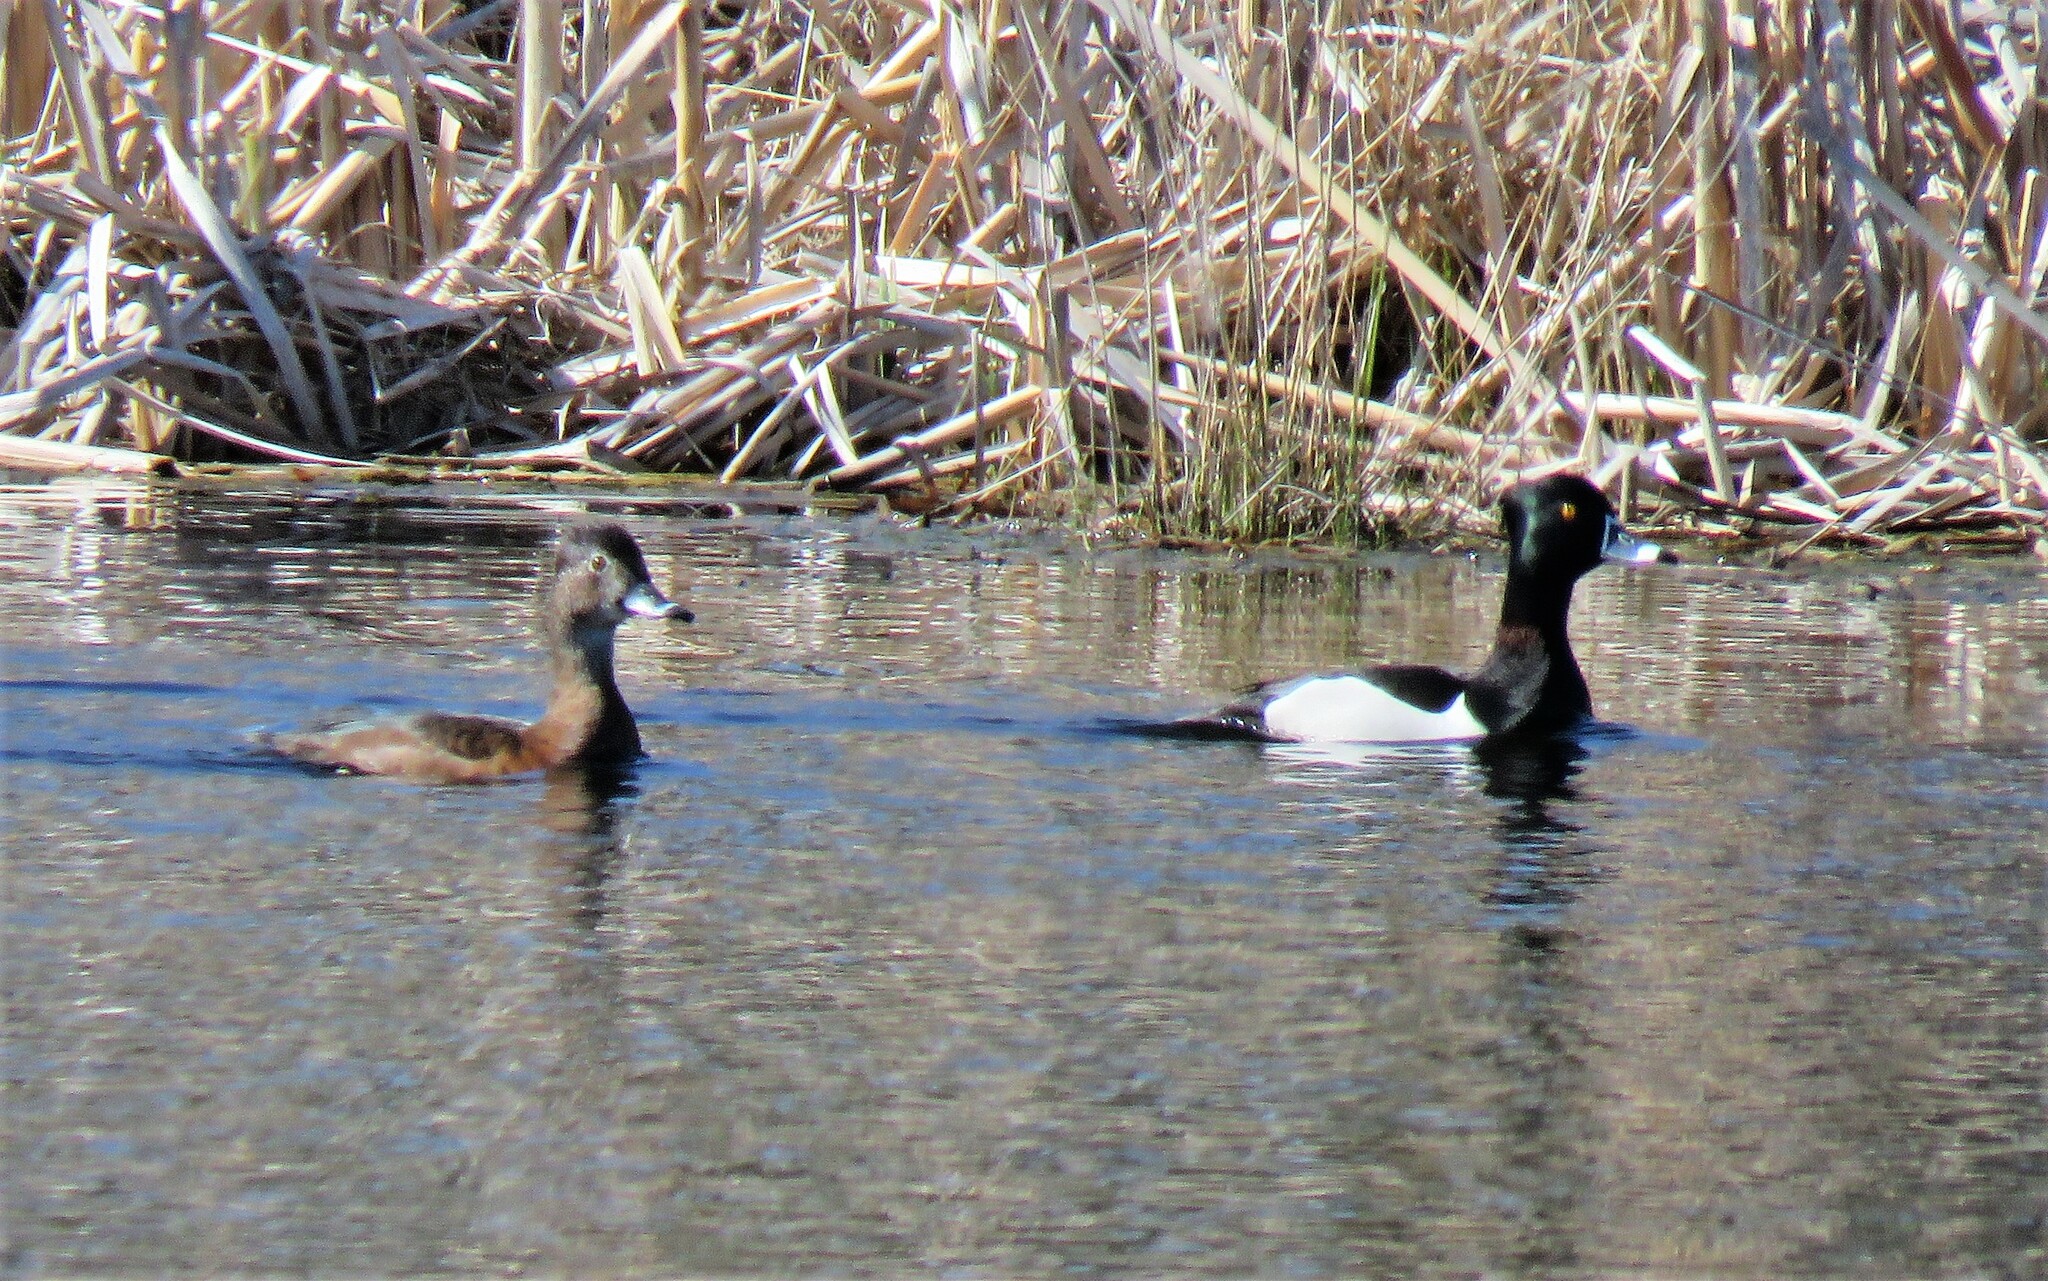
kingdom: Animalia
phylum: Chordata
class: Aves
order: Anseriformes
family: Anatidae
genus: Aythya
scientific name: Aythya collaris
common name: Ring-necked duck
